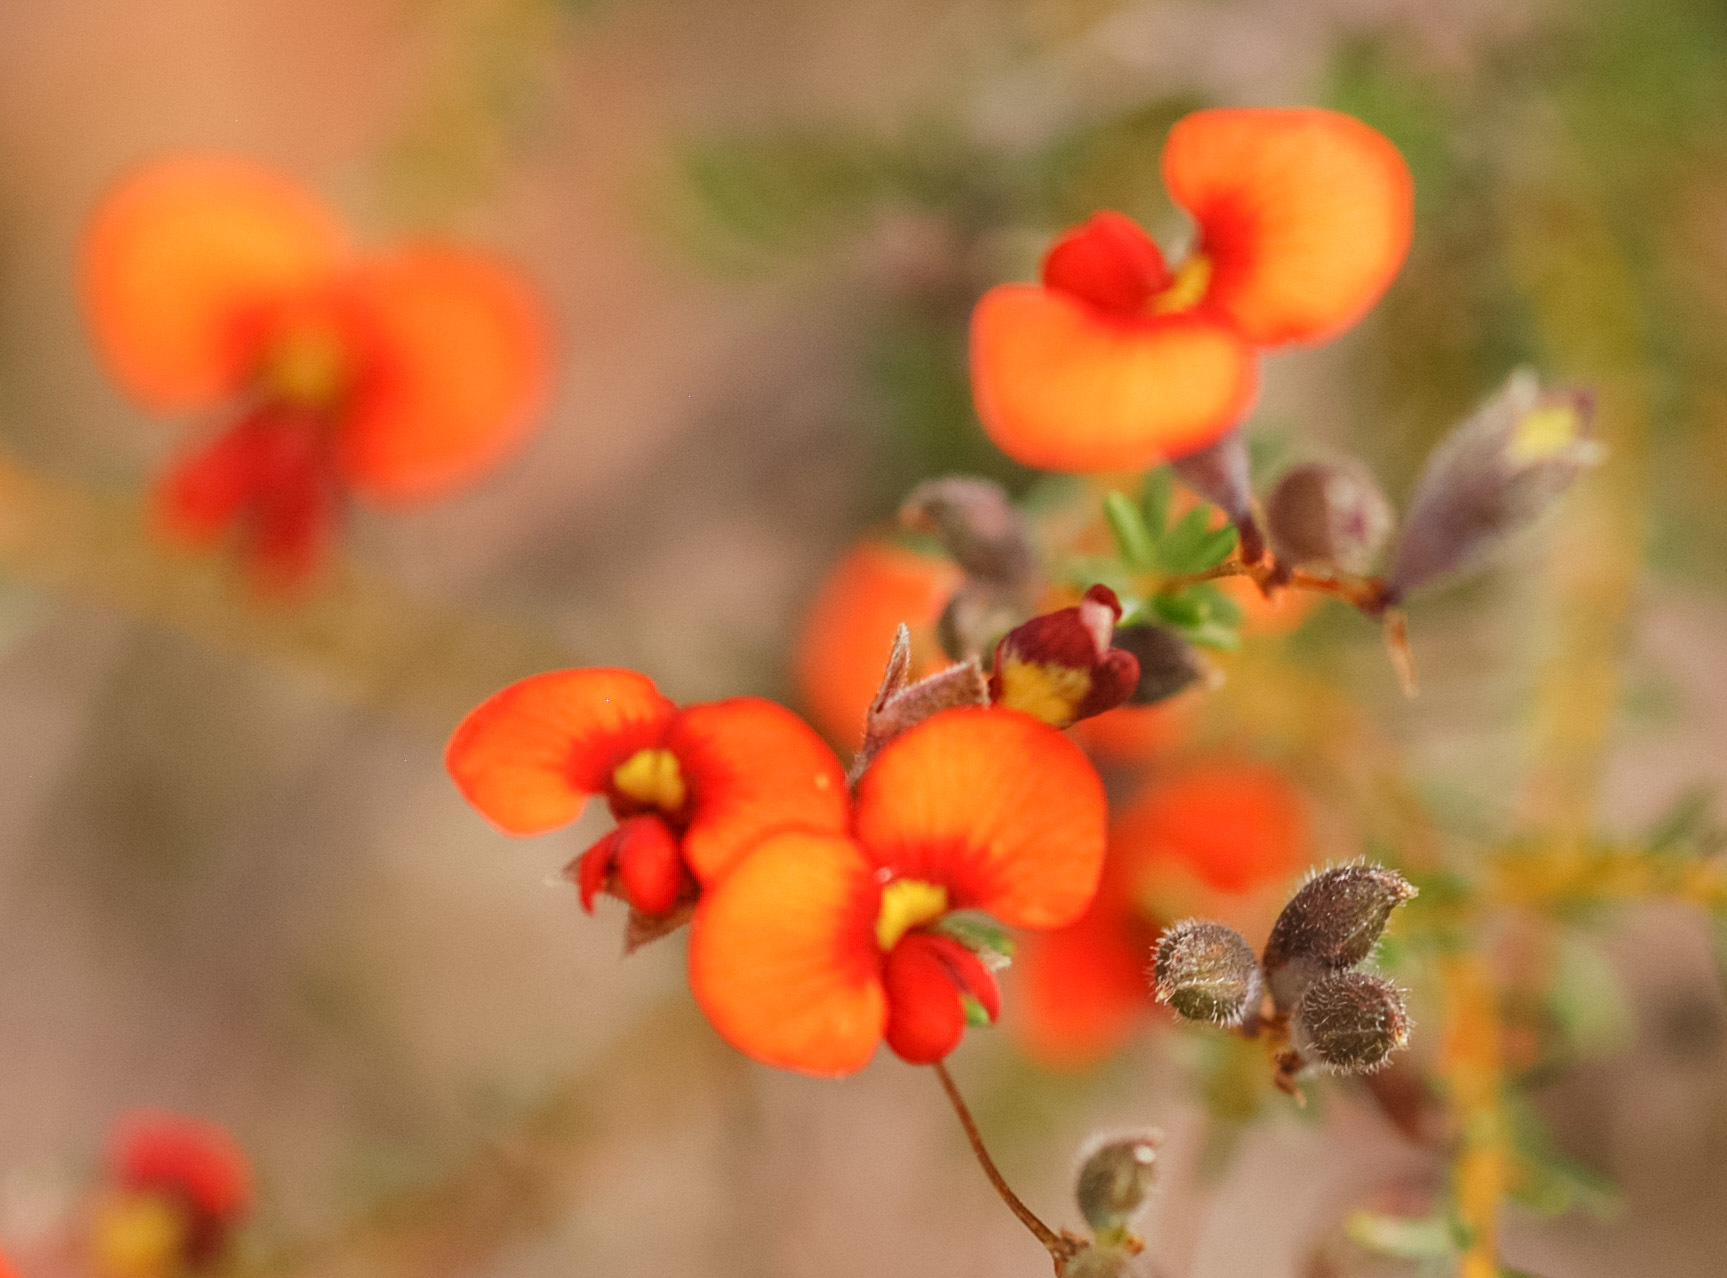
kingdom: Plantae
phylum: Tracheophyta
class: Magnoliopsida
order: Fabales
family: Fabaceae
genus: Dillwynia
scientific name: Dillwynia hispida
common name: Red parrot-pea
